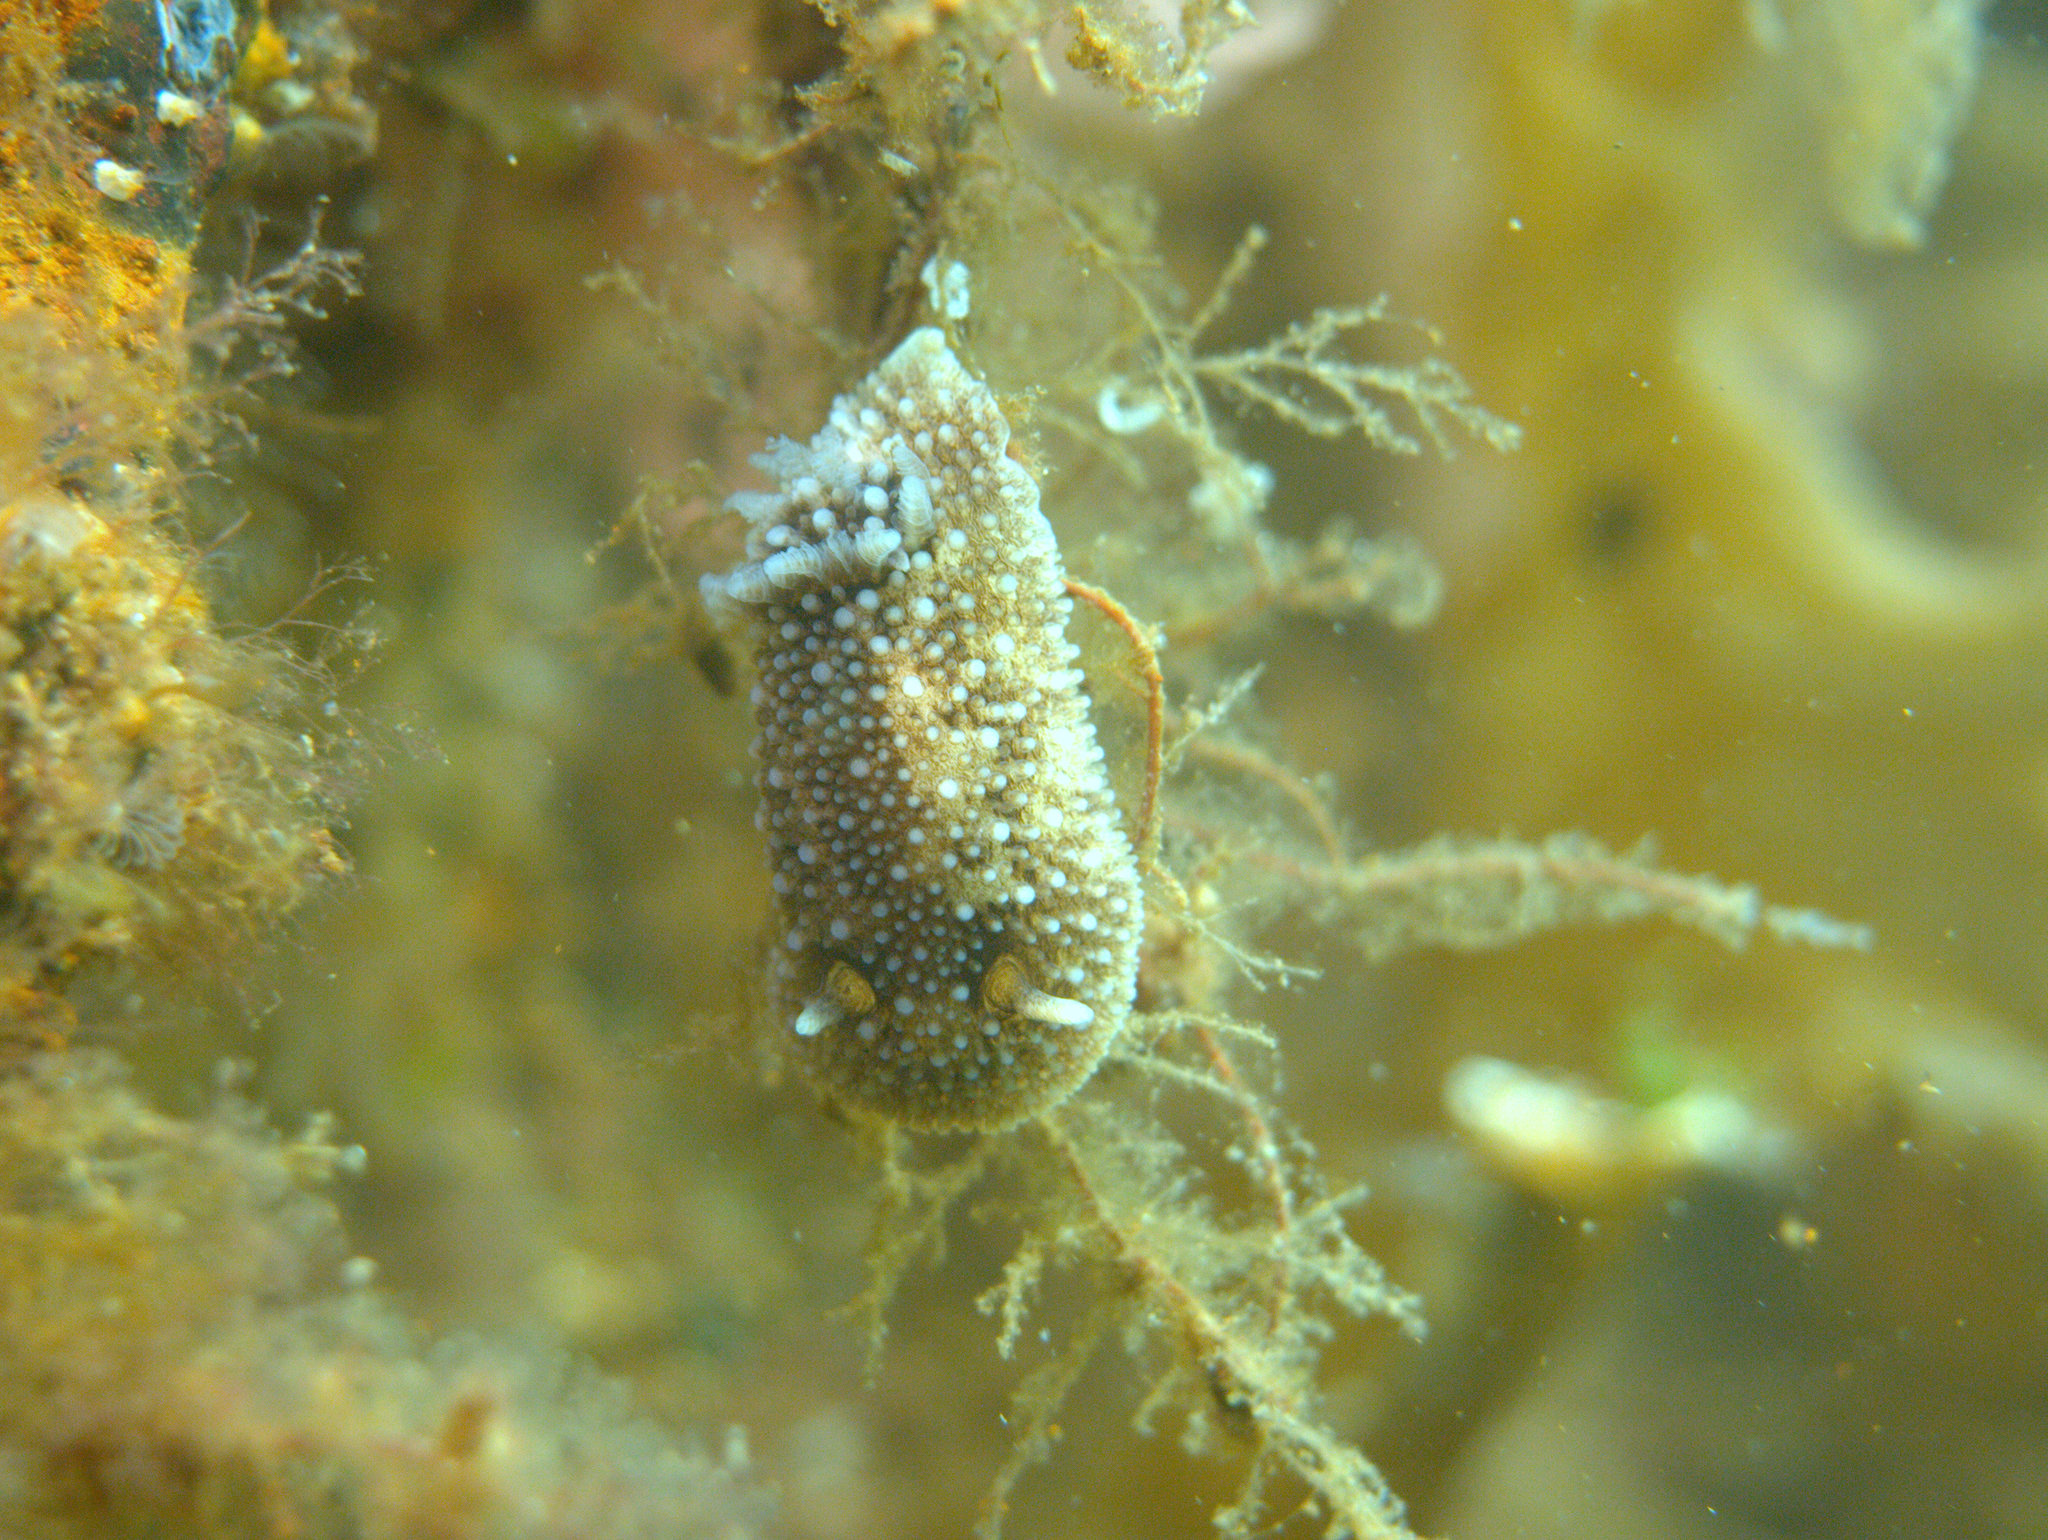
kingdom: Animalia
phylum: Mollusca
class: Gastropoda
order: Nudibranchia
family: Onchidorididae
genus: Onchidoris
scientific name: Onchidoris bilamellata
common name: Barnacle-eating onchidoris
